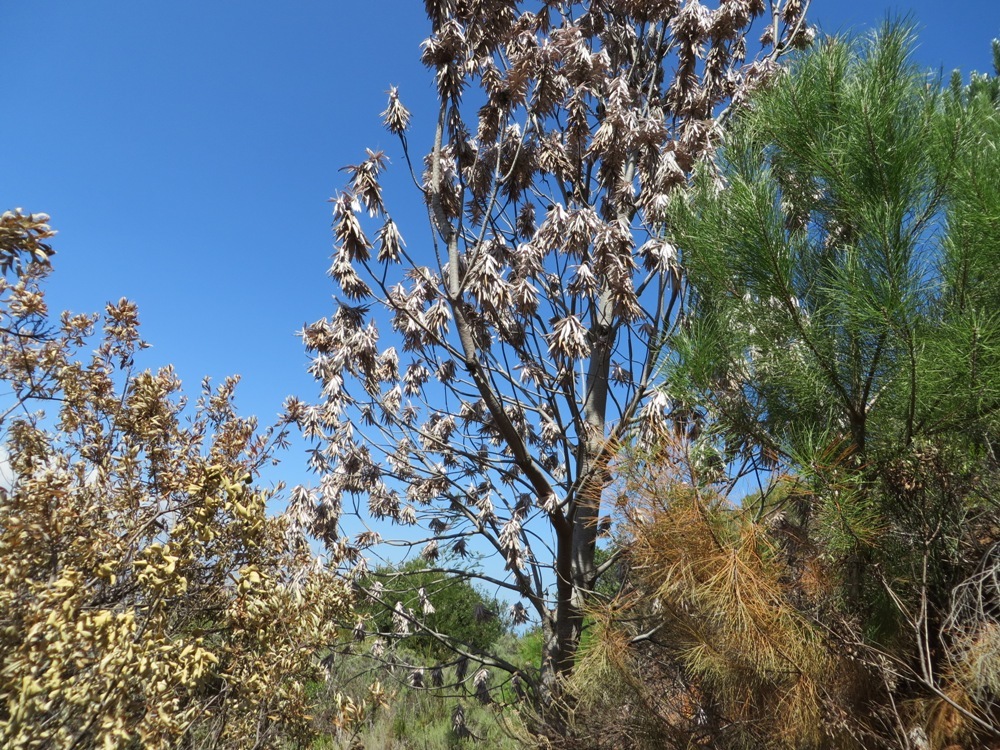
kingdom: Plantae
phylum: Tracheophyta
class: Magnoliopsida
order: Proteales
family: Proteaceae
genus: Leucadendron
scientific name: Leucadendron argenteum
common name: Cape silver tree
